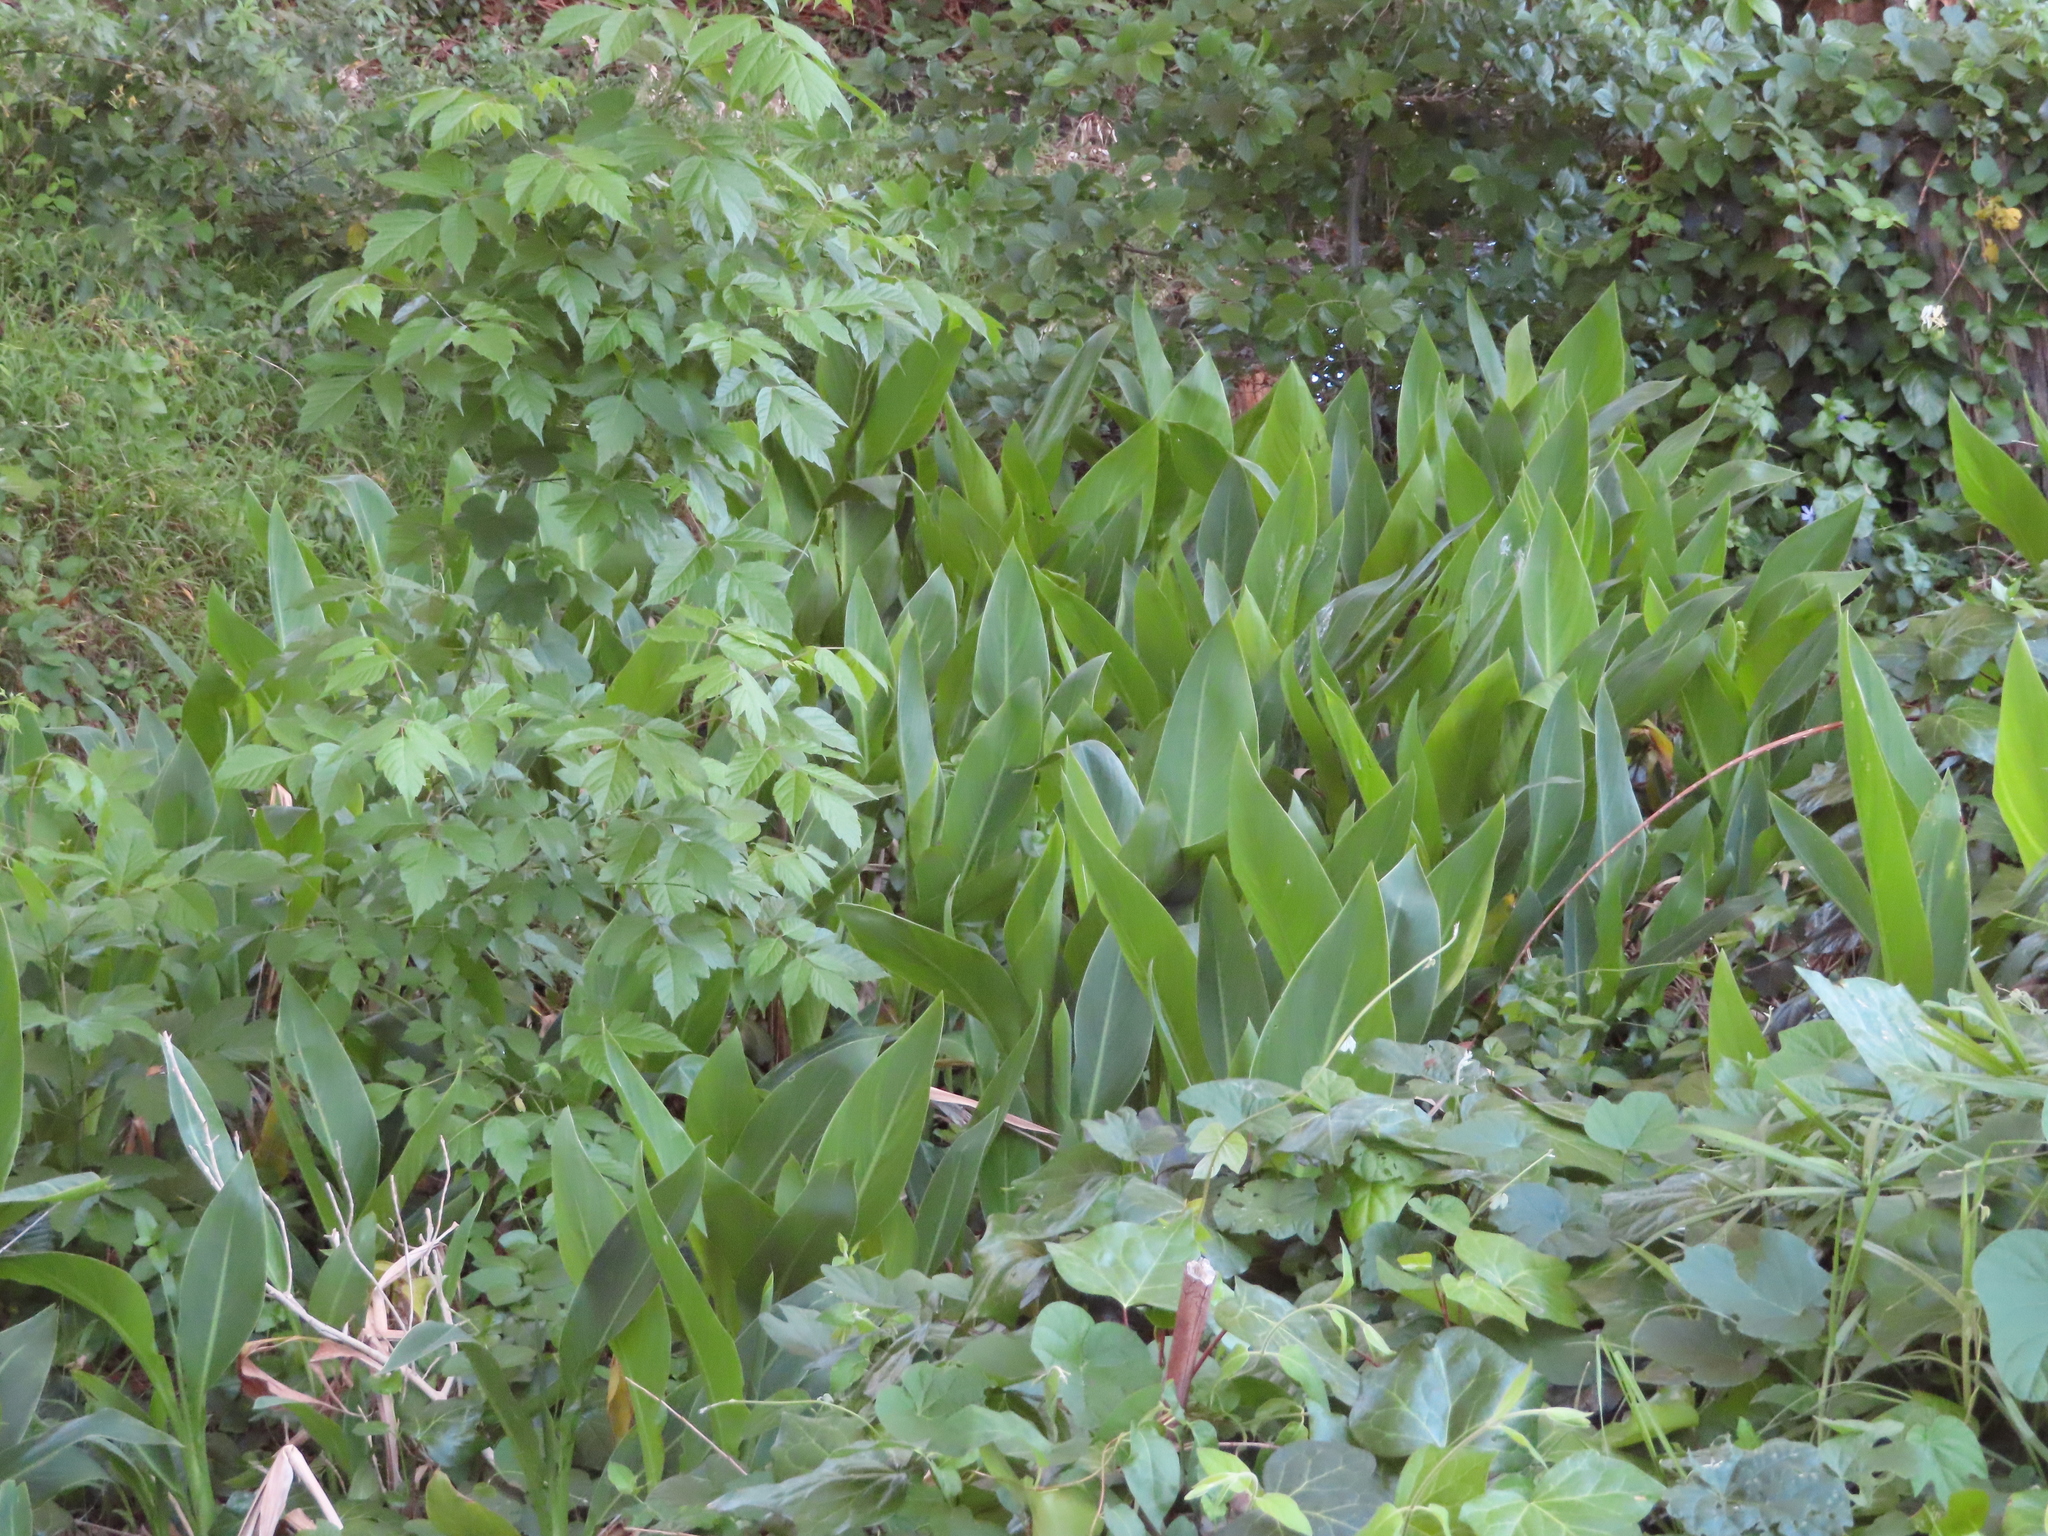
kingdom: Plantae
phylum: Tracheophyta
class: Liliopsida
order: Zingiberales
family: Cannaceae
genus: Canna
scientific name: Canna indica
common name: Indian shot
